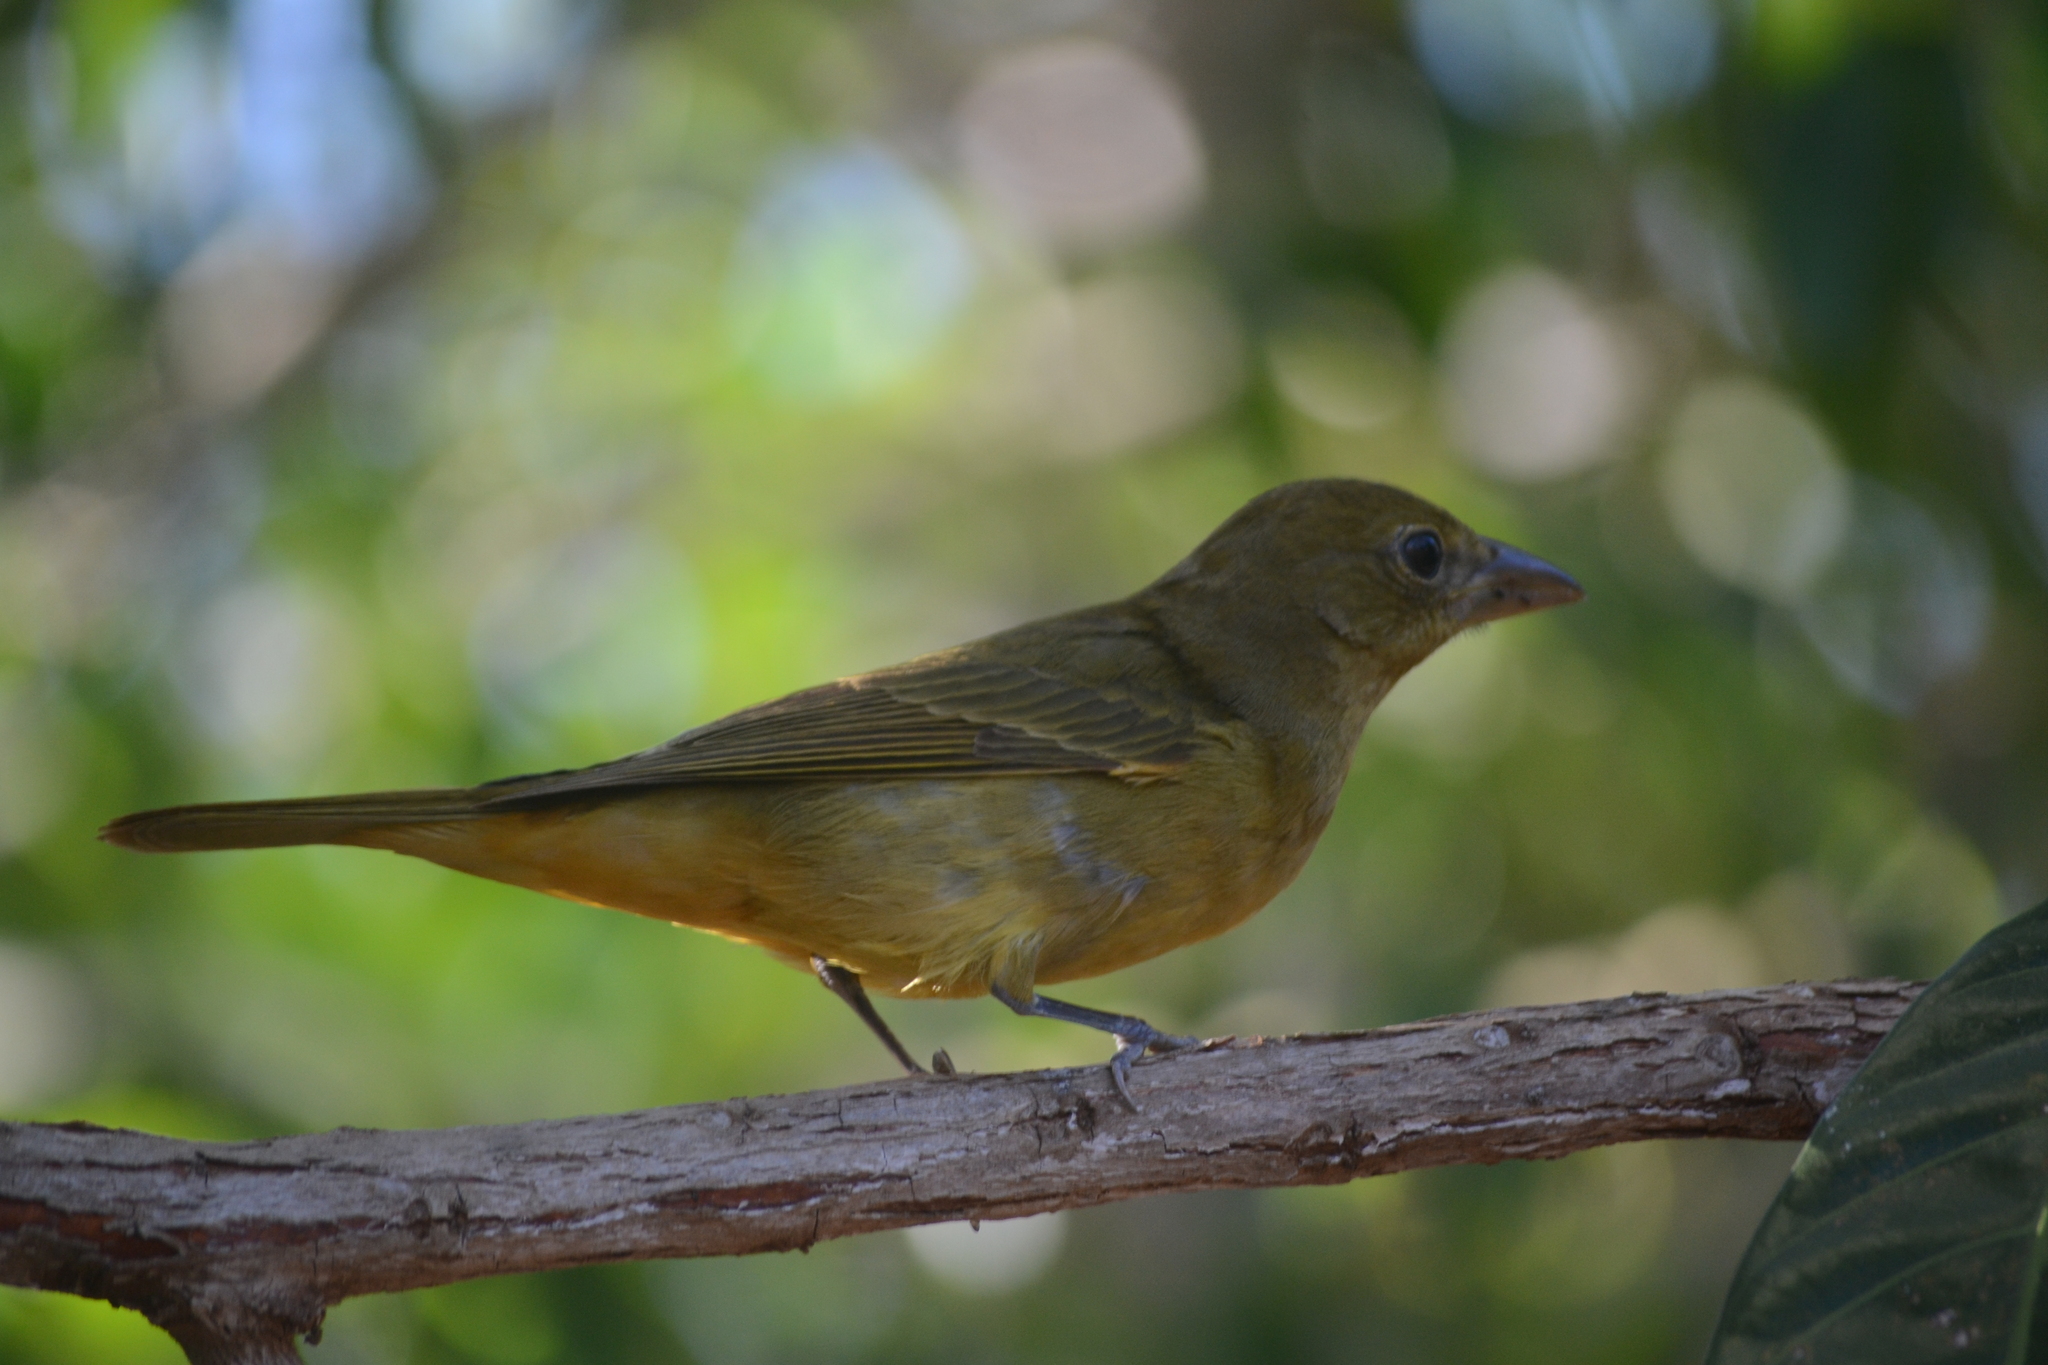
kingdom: Animalia
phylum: Chordata
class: Aves
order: Passeriformes
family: Cardinalidae
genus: Piranga
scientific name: Piranga rubra
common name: Summer tanager
